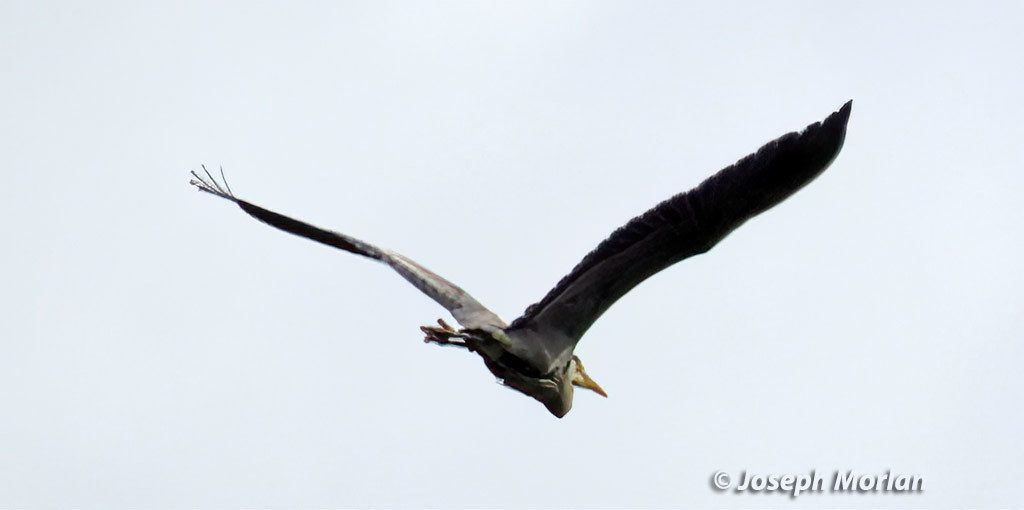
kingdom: Animalia
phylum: Chordata
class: Aves
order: Pelecaniformes
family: Ardeidae
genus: Ardea
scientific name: Ardea herodias
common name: Great blue heron
